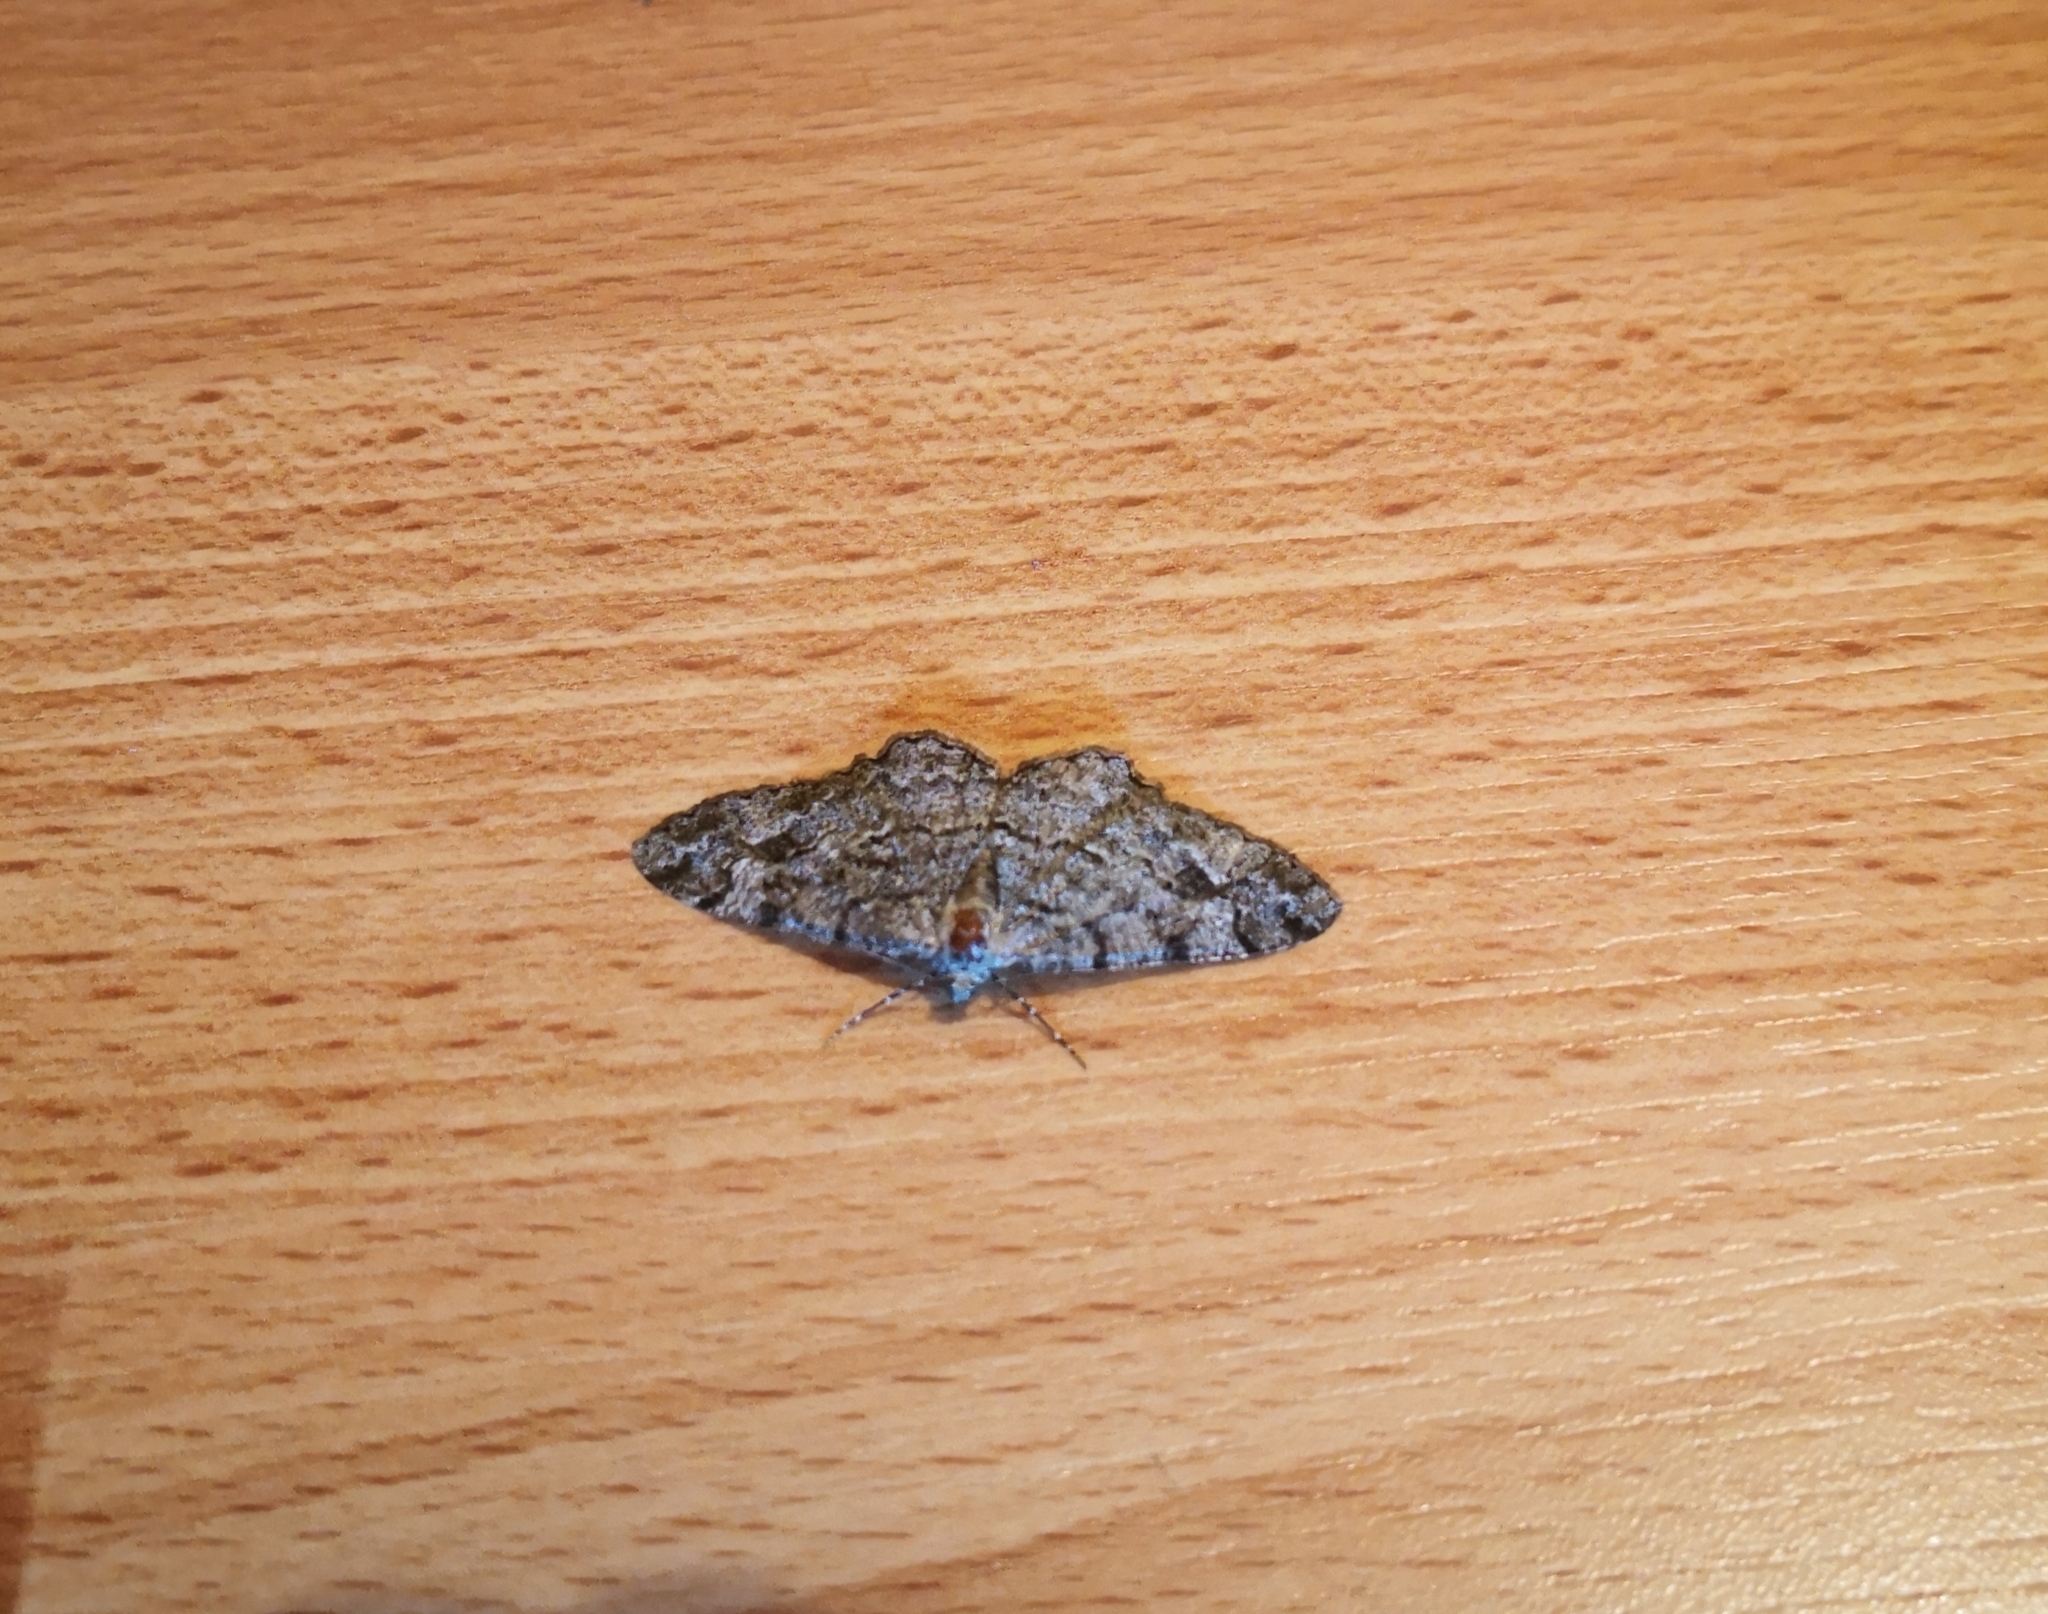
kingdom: Animalia
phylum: Arthropoda
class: Insecta
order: Lepidoptera
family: Geometridae
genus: Alcis
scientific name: Alcis repandata
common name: Mottled beauty
